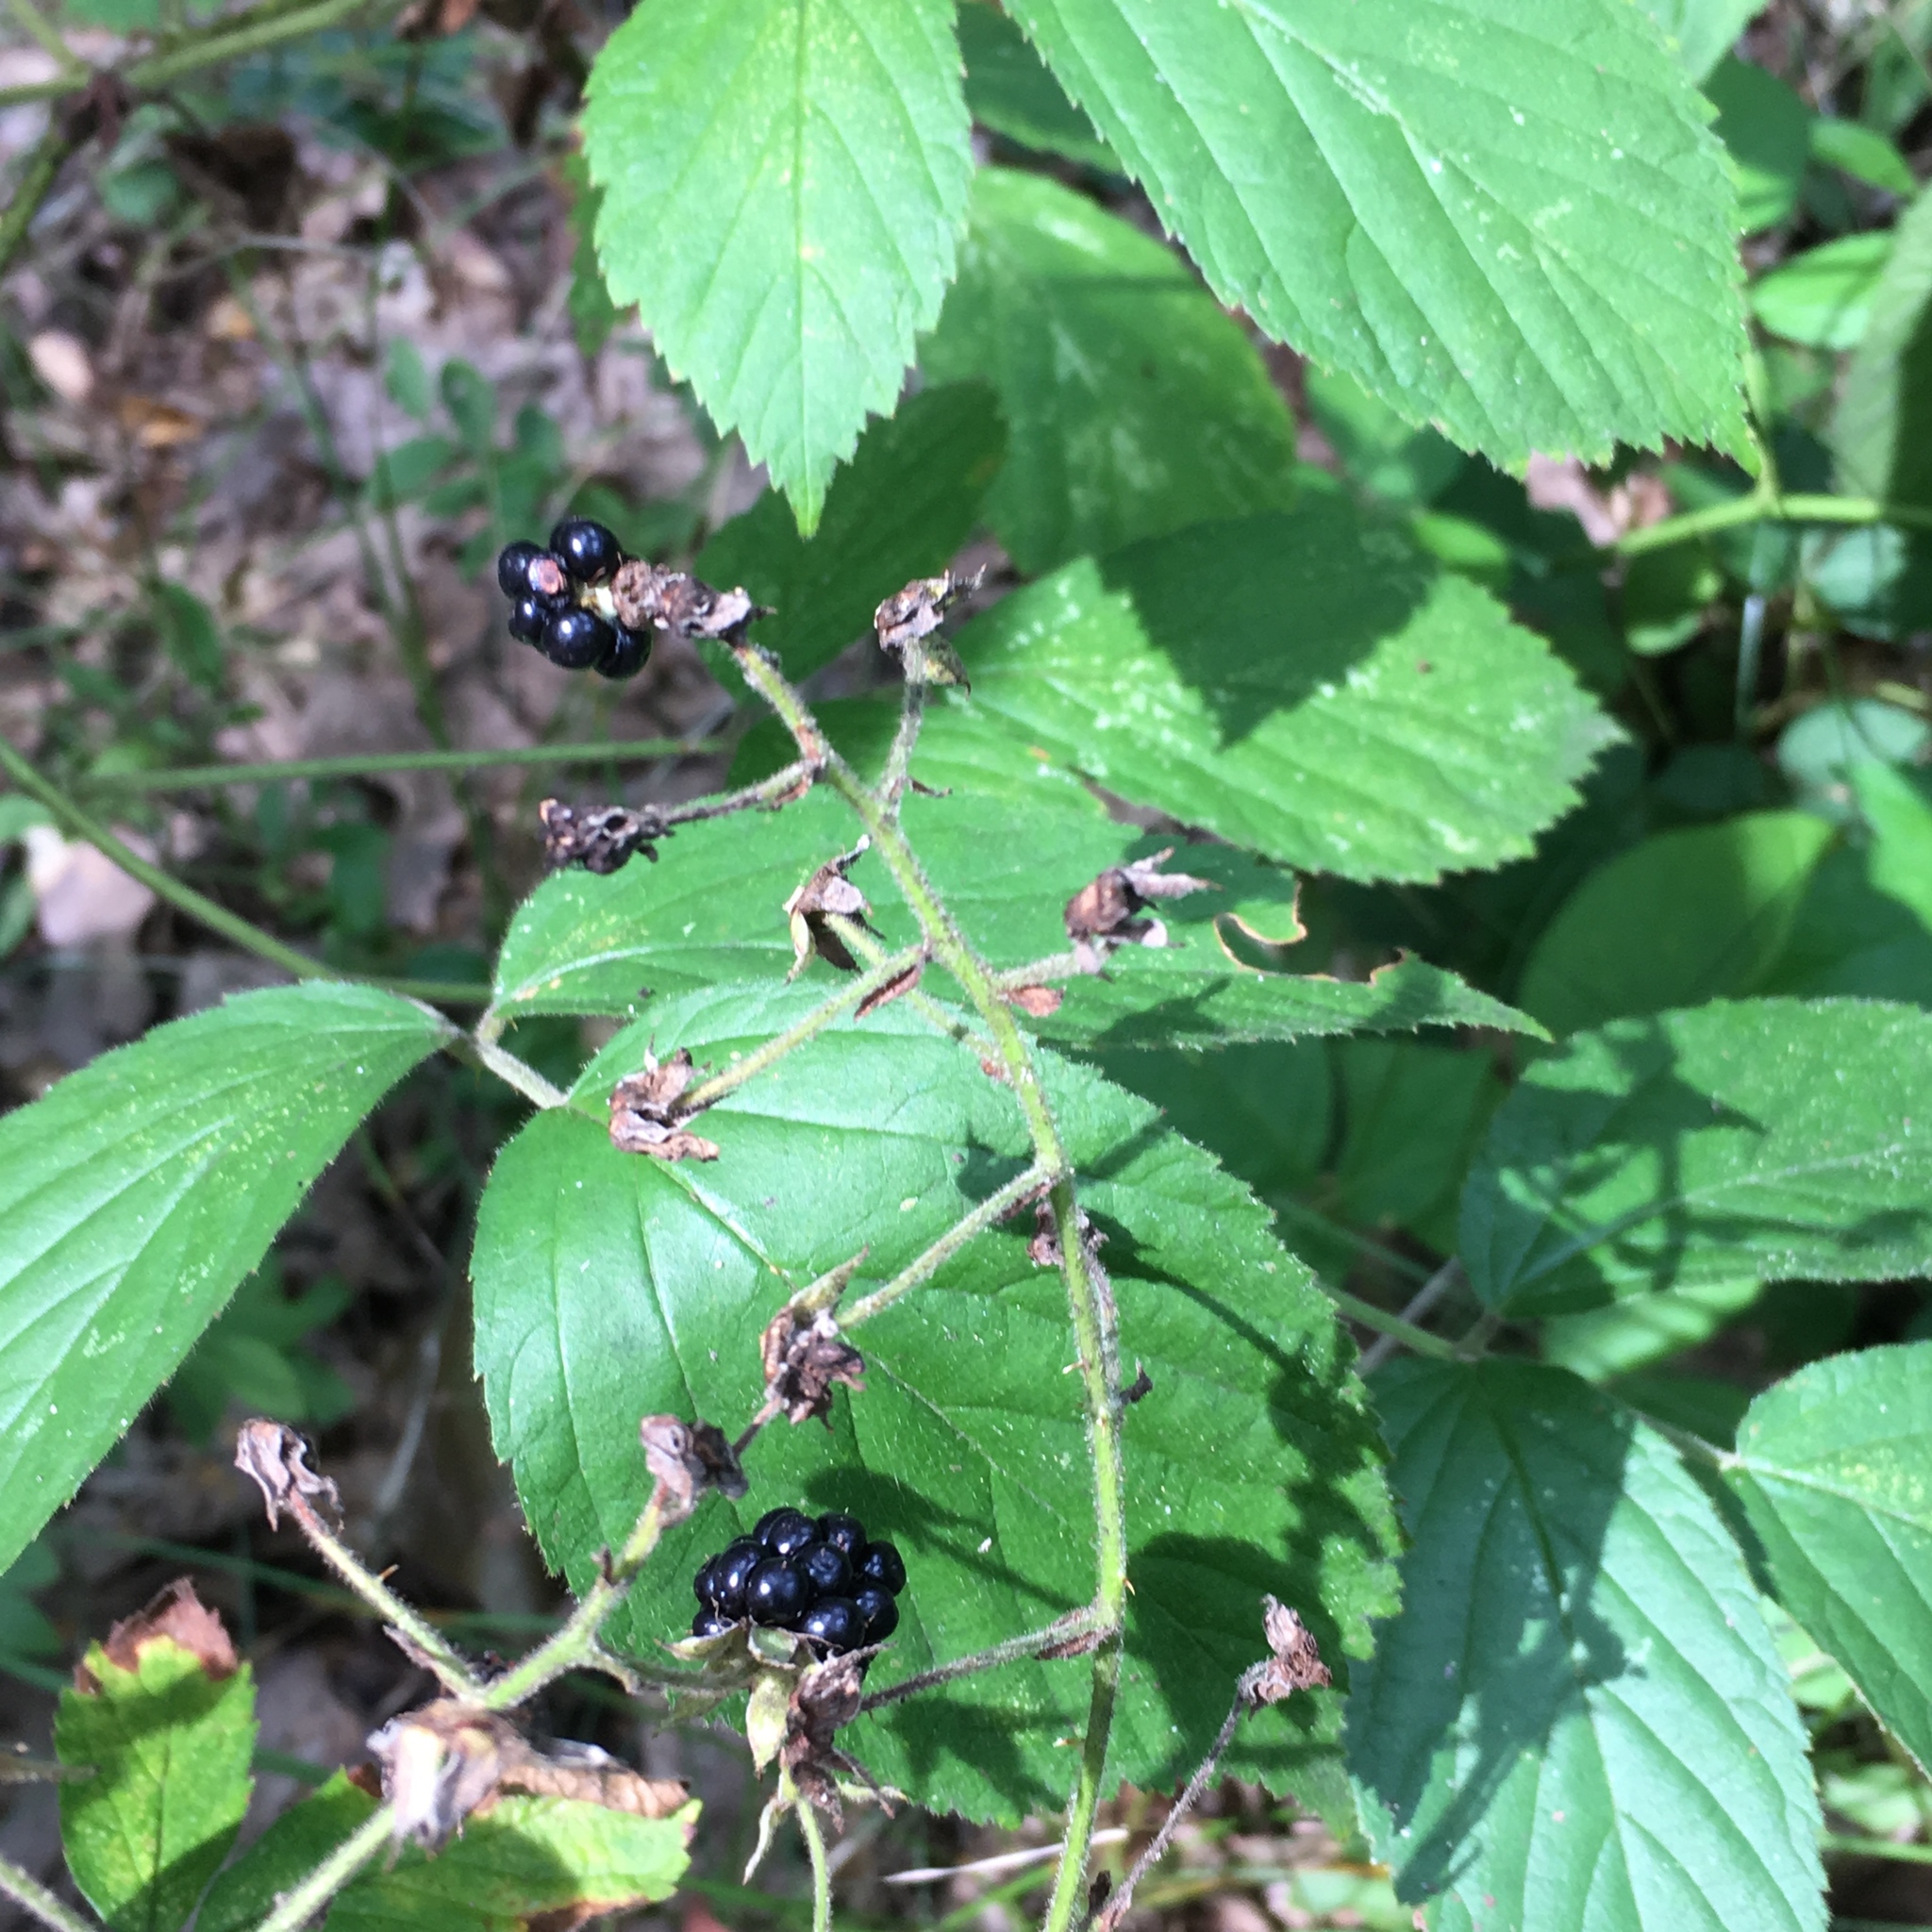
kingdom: Plantae
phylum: Tracheophyta
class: Magnoliopsida
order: Rosales
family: Rosaceae
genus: Rubus
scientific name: Rubus allegheniensis
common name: Allegheny blackberry
